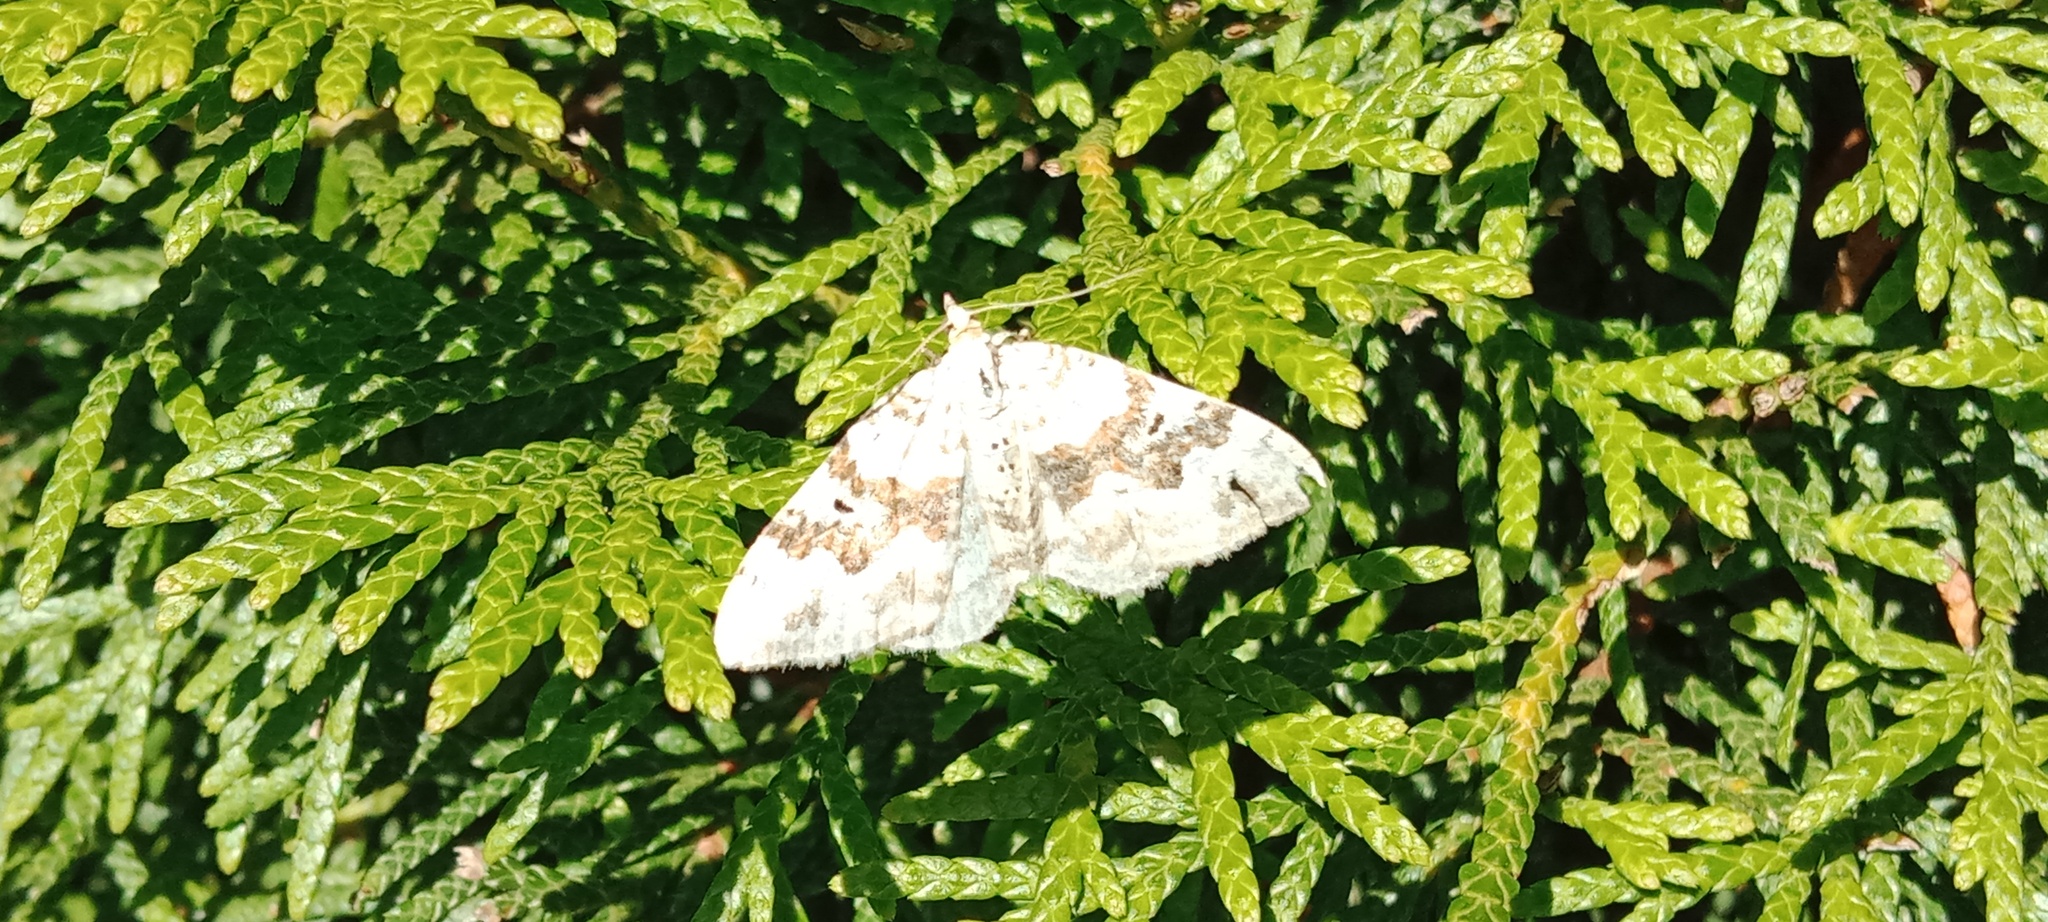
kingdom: Animalia
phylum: Arthropoda
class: Insecta
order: Lepidoptera
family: Geometridae
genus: Xanthorhoe
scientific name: Xanthorhoe montanata
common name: Silver-ground carpet
